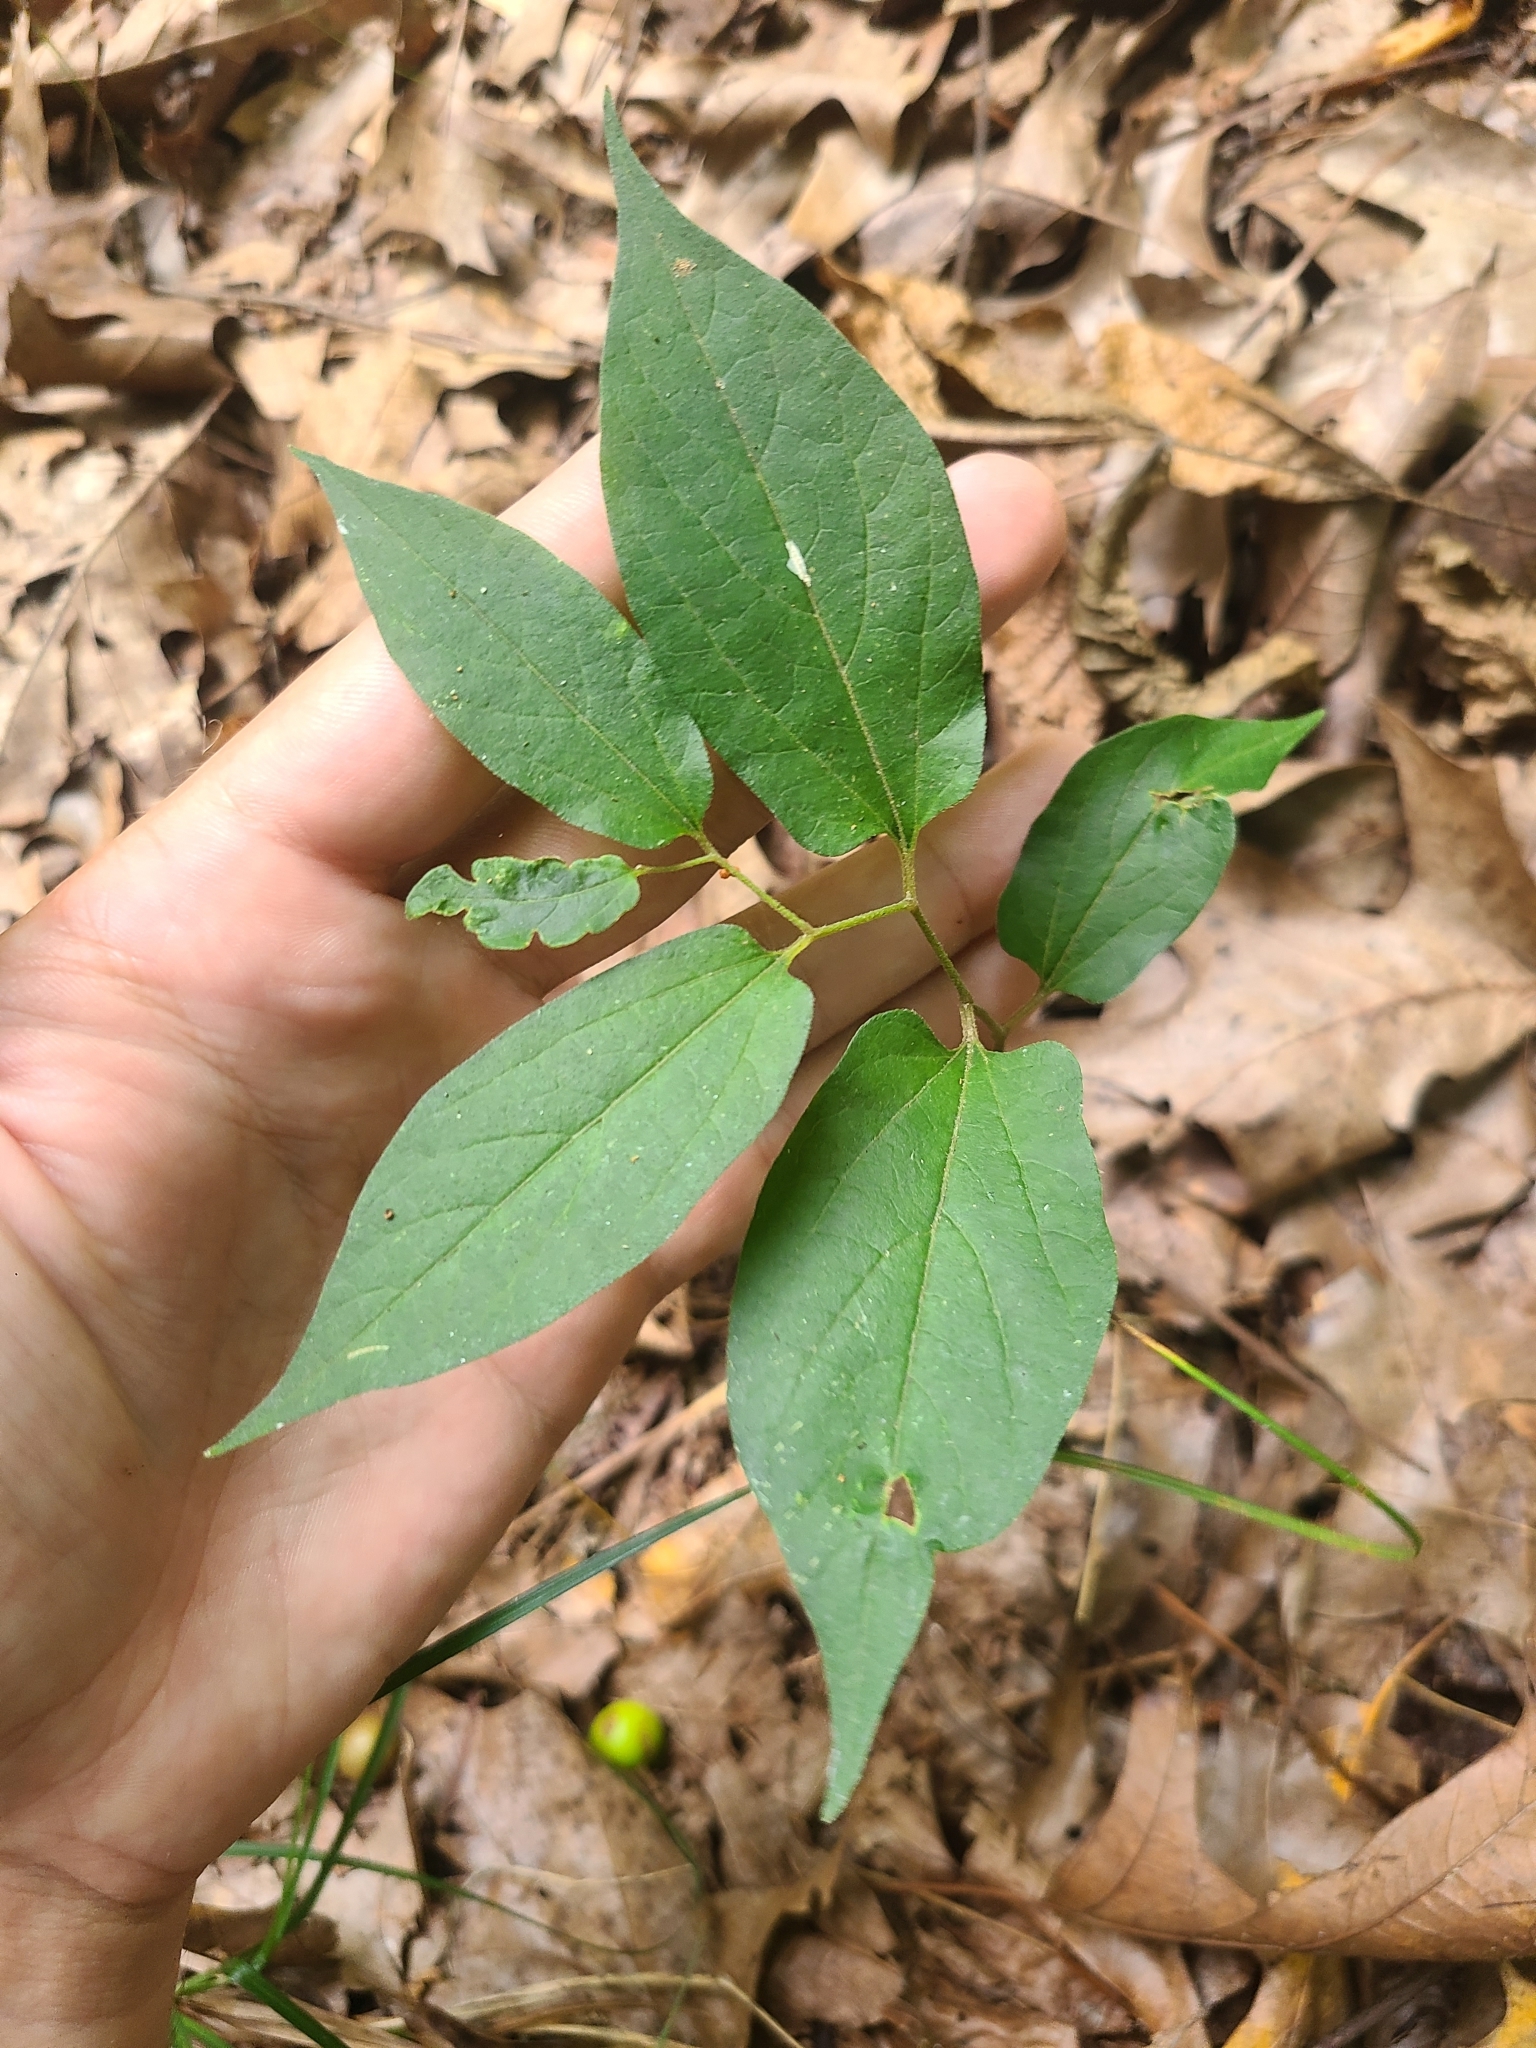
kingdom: Plantae
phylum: Tracheophyta
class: Magnoliopsida
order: Piperales
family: Aristolochiaceae
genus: Endodeca
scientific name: Endodeca serpentaria
